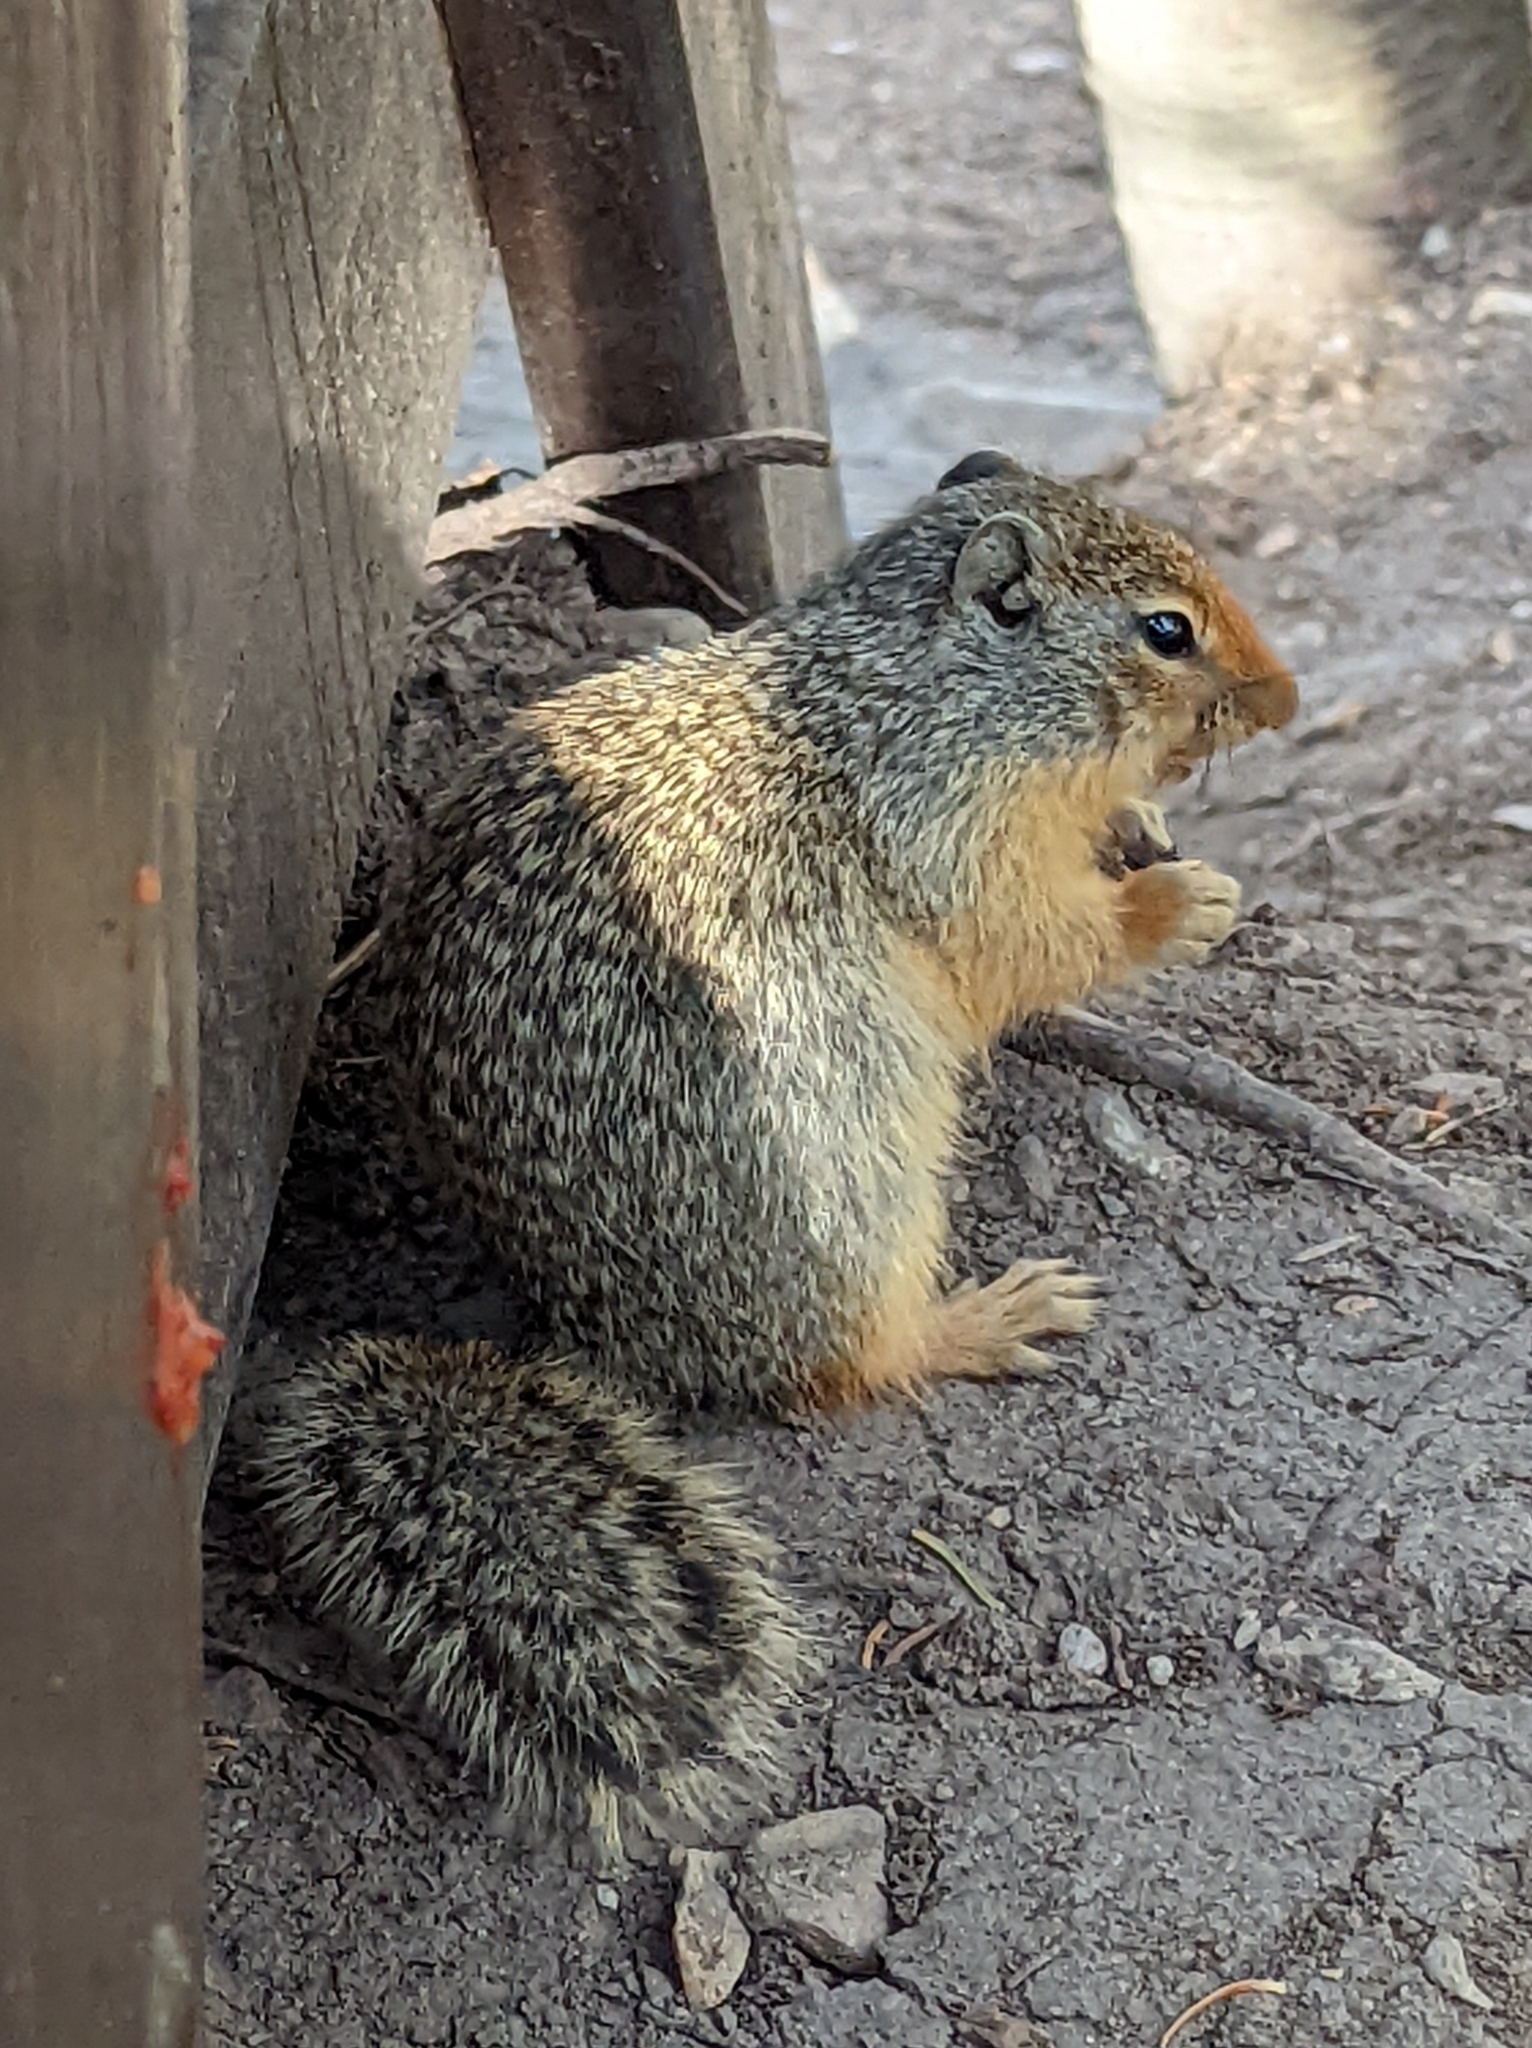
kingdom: Animalia
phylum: Chordata
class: Mammalia
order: Rodentia
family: Sciuridae
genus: Urocitellus
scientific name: Urocitellus columbianus
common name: Columbian ground squirrel
